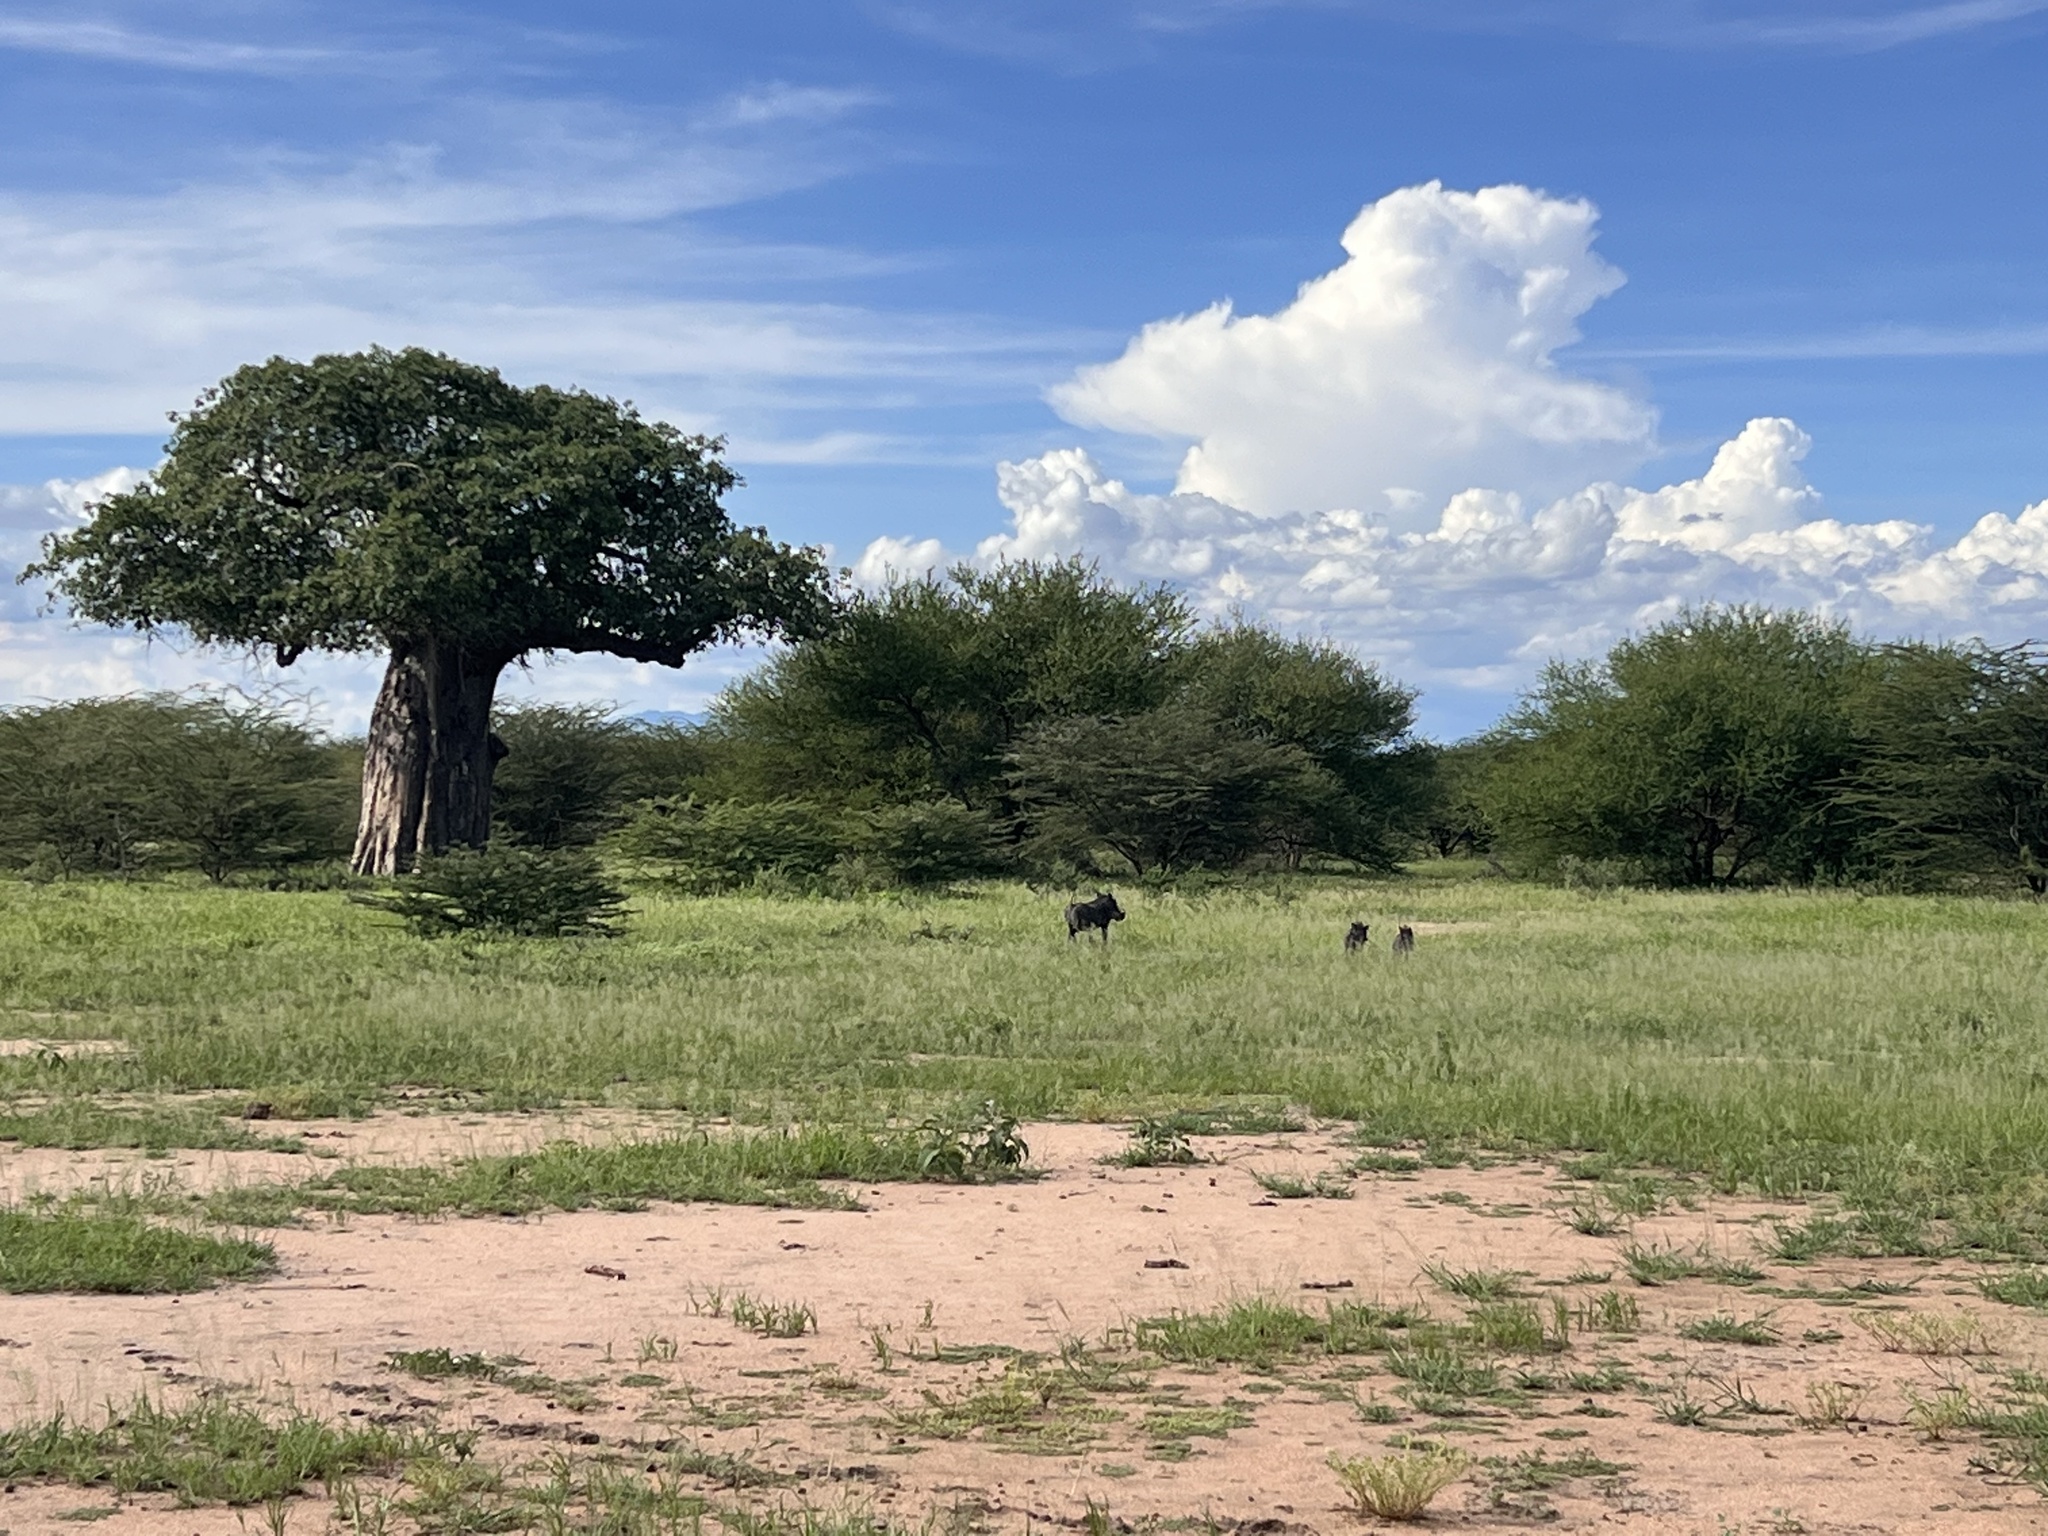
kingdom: Animalia
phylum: Chordata
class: Mammalia
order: Artiodactyla
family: Suidae
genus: Phacochoerus
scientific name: Phacochoerus africanus
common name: Common warthog
